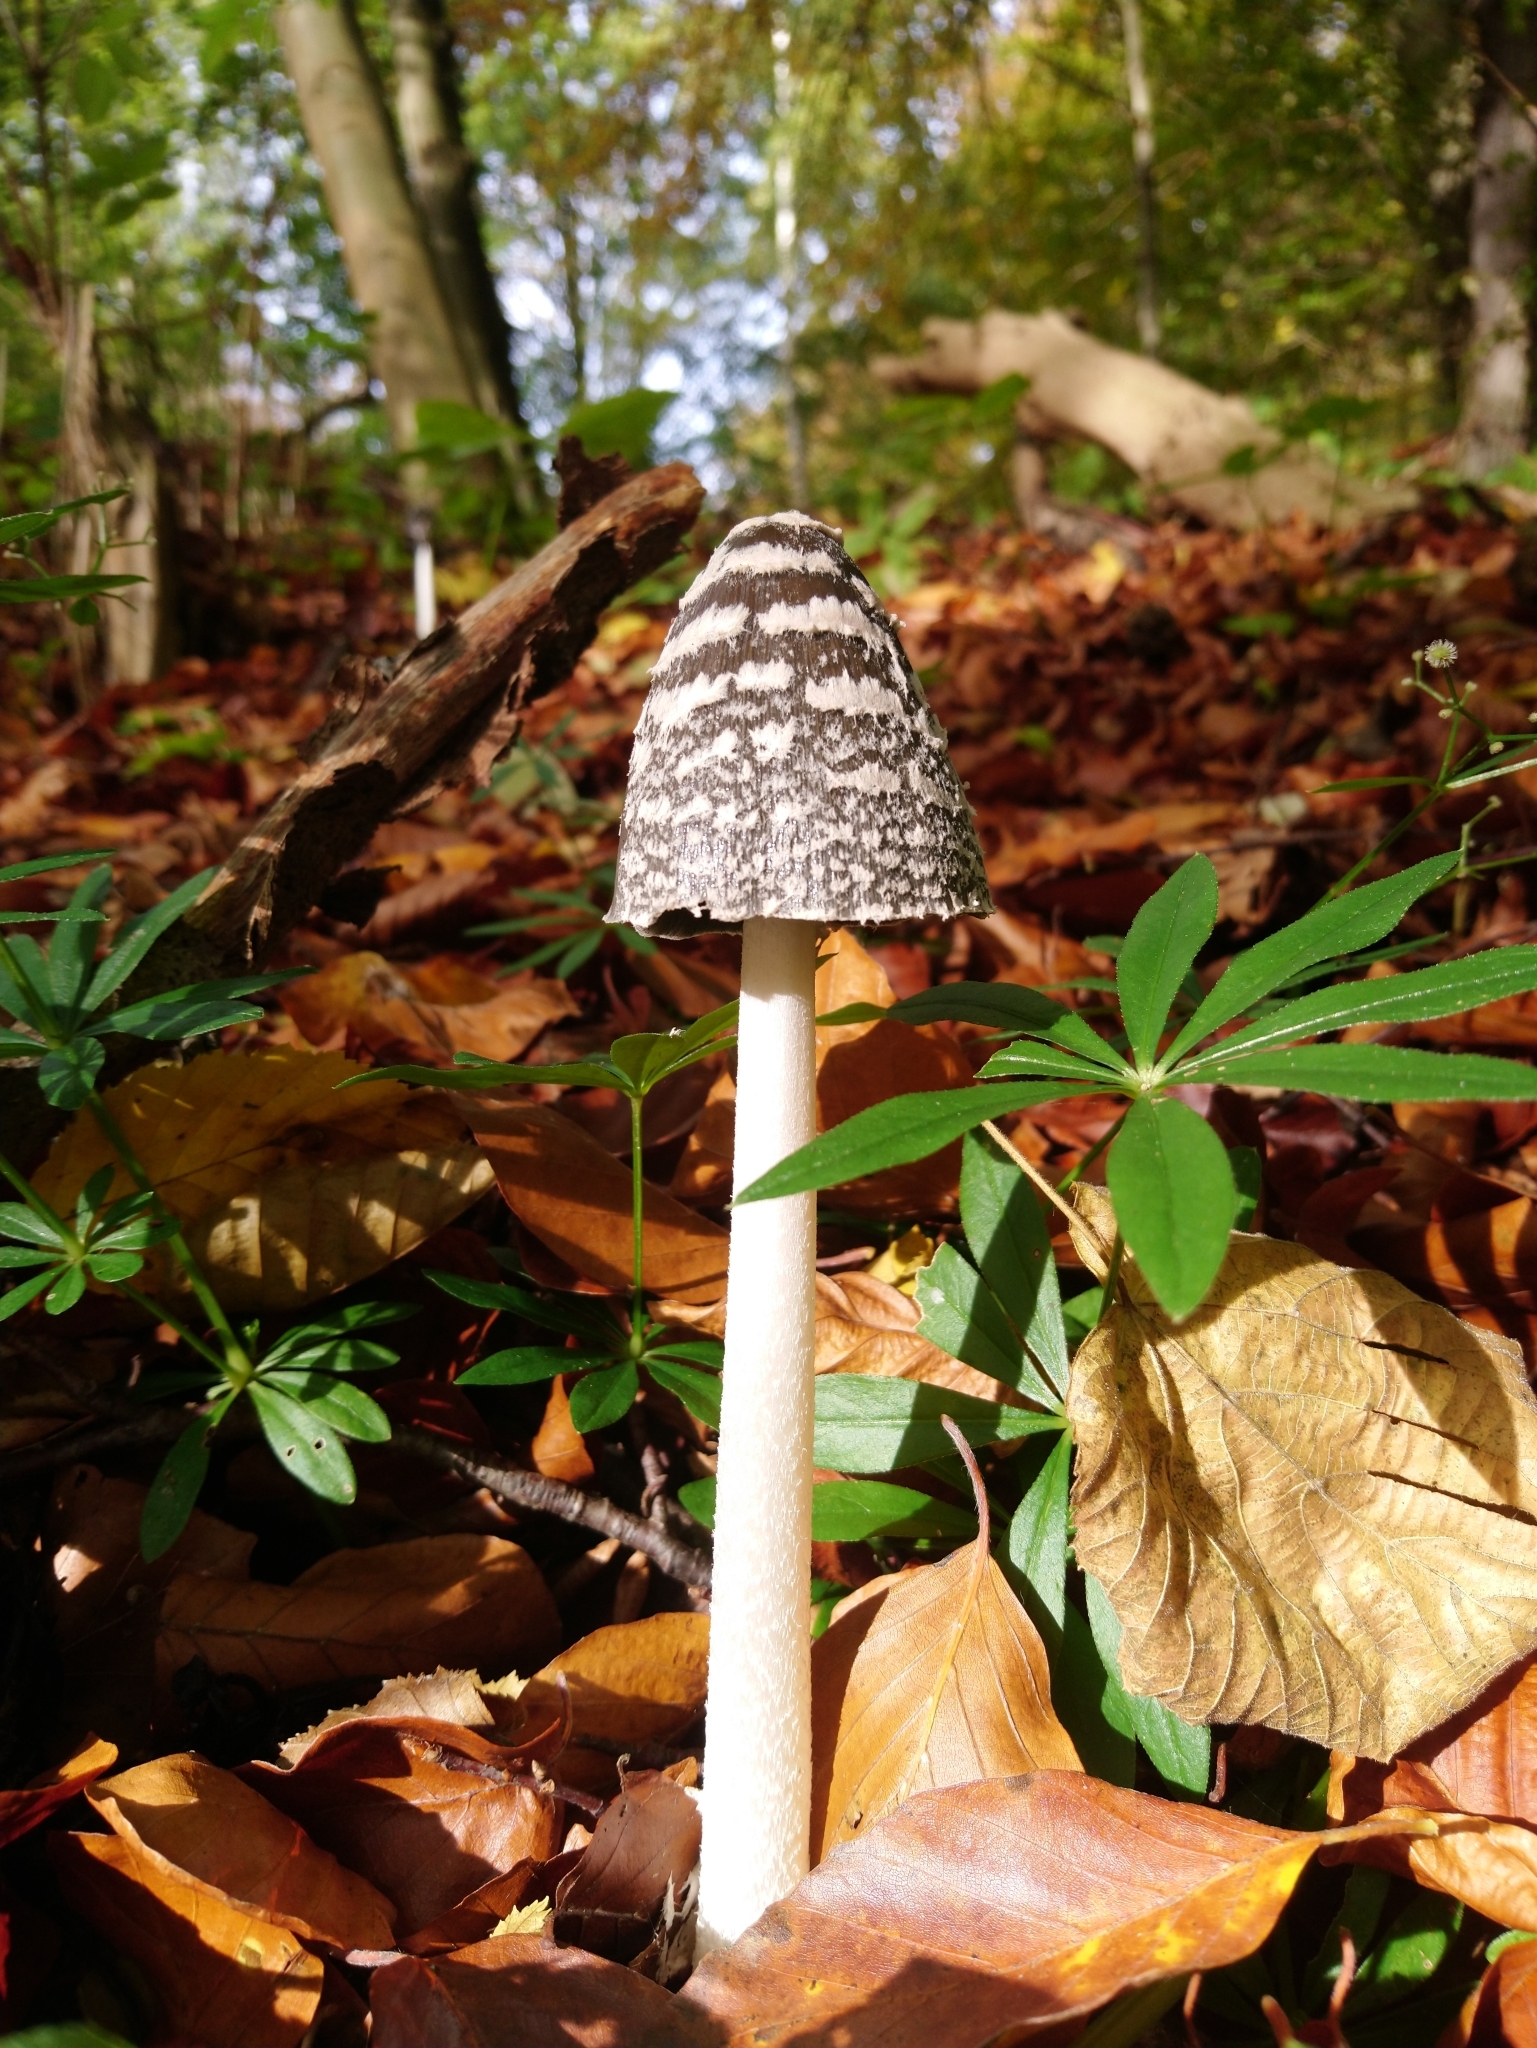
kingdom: Fungi
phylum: Basidiomycota
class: Agaricomycetes
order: Agaricales
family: Psathyrellaceae
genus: Coprinopsis
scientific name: Coprinopsis picacea
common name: Magpie inkcap
